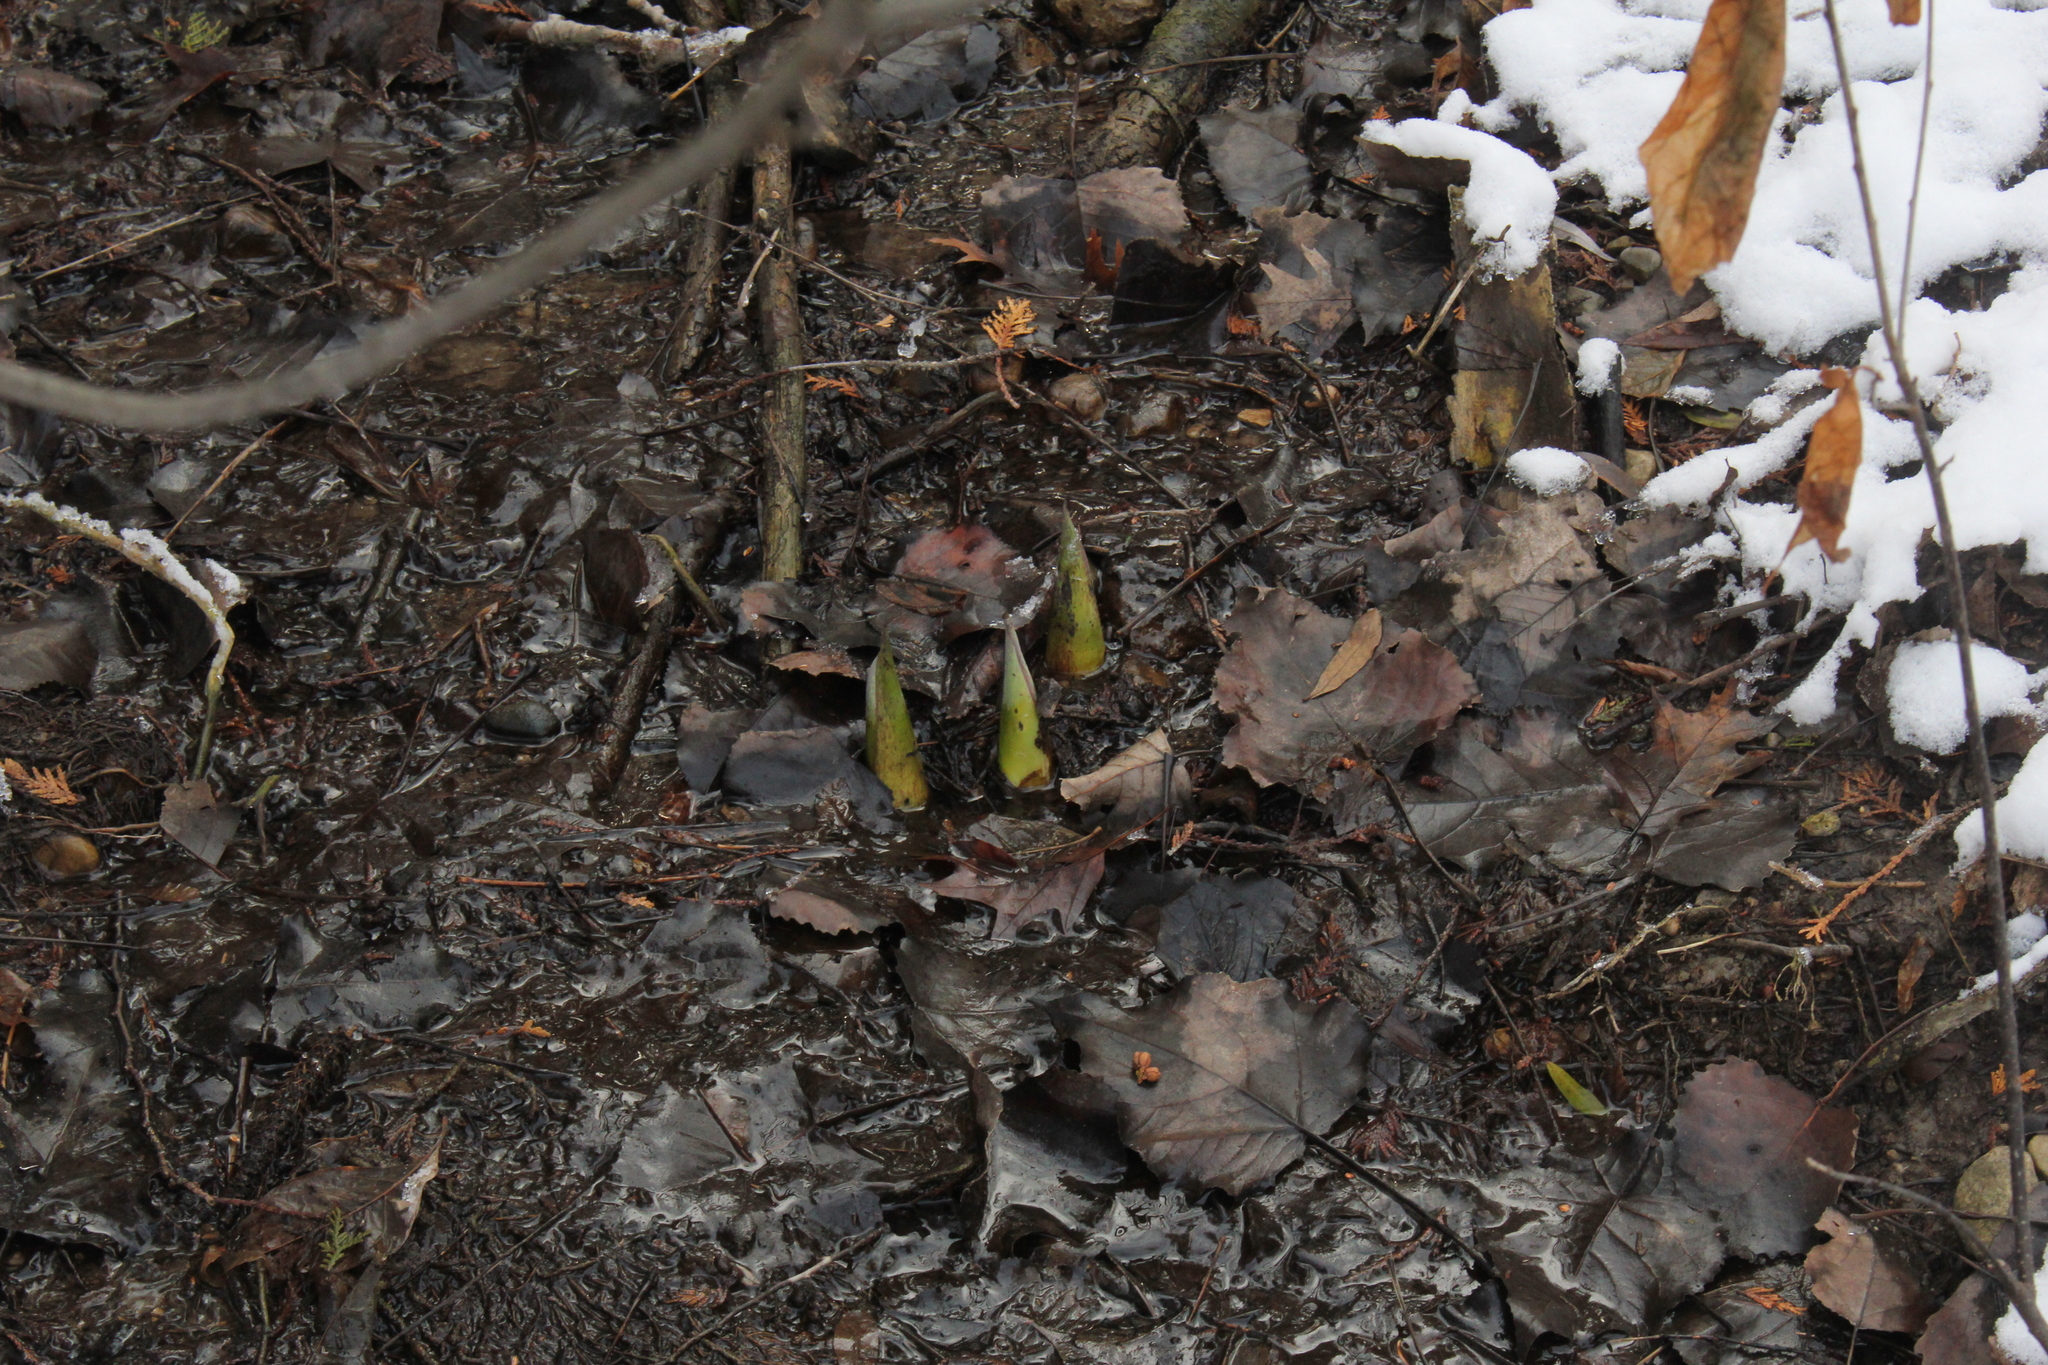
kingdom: Plantae
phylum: Tracheophyta
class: Liliopsida
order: Alismatales
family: Araceae
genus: Symplocarpus
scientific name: Symplocarpus foetidus
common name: Eastern skunk cabbage
